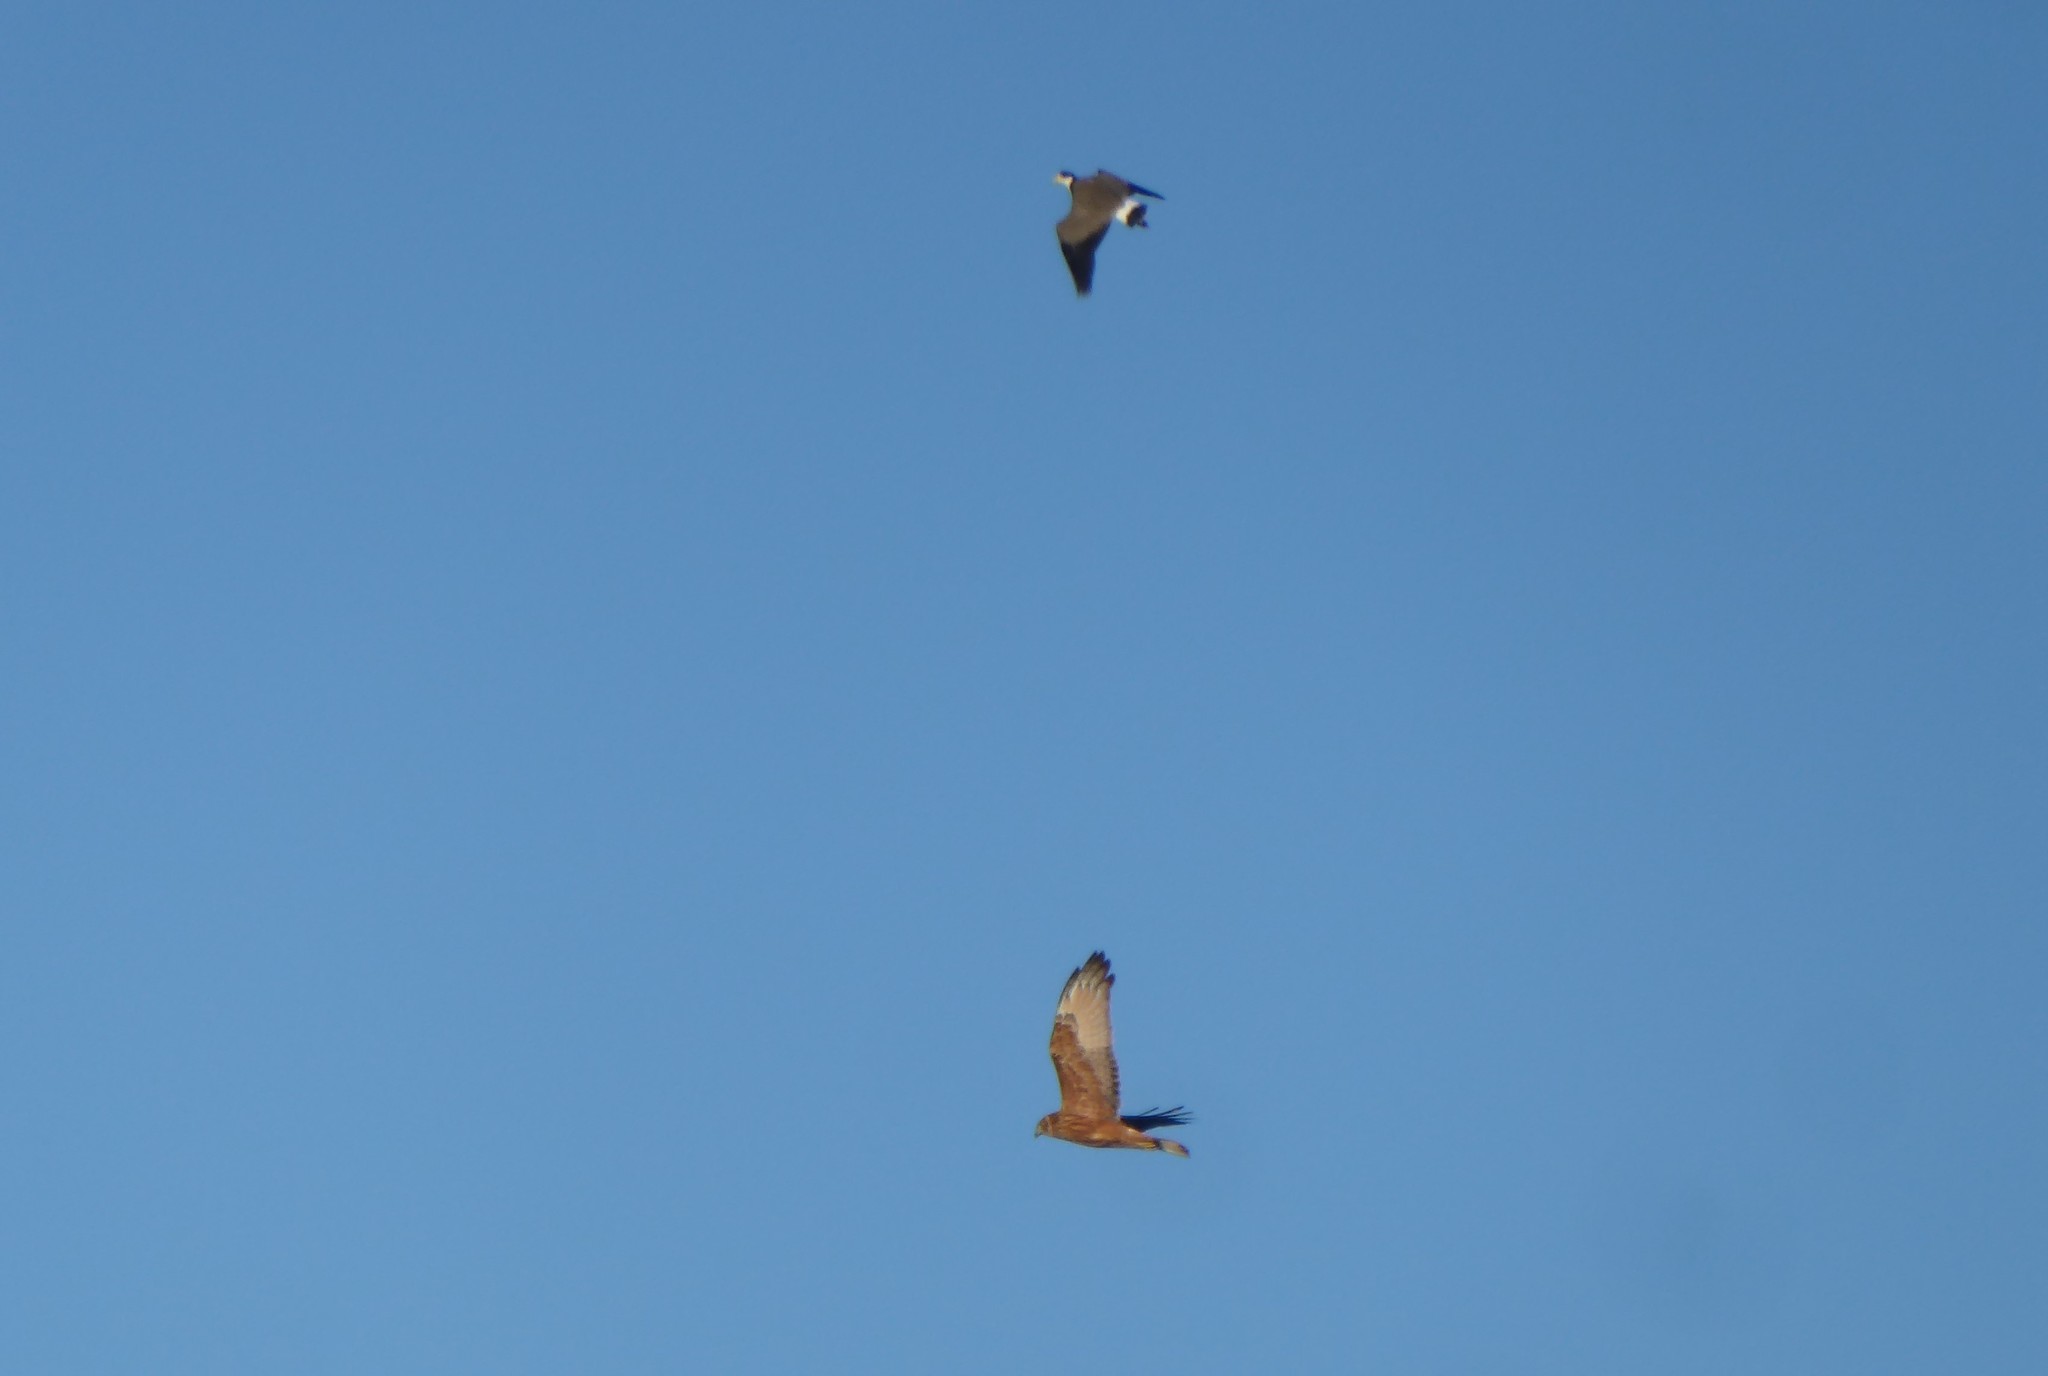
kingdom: Animalia
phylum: Chordata
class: Aves
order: Accipitriformes
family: Accipitridae
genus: Circus
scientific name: Circus approximans
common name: Swamp harrier
